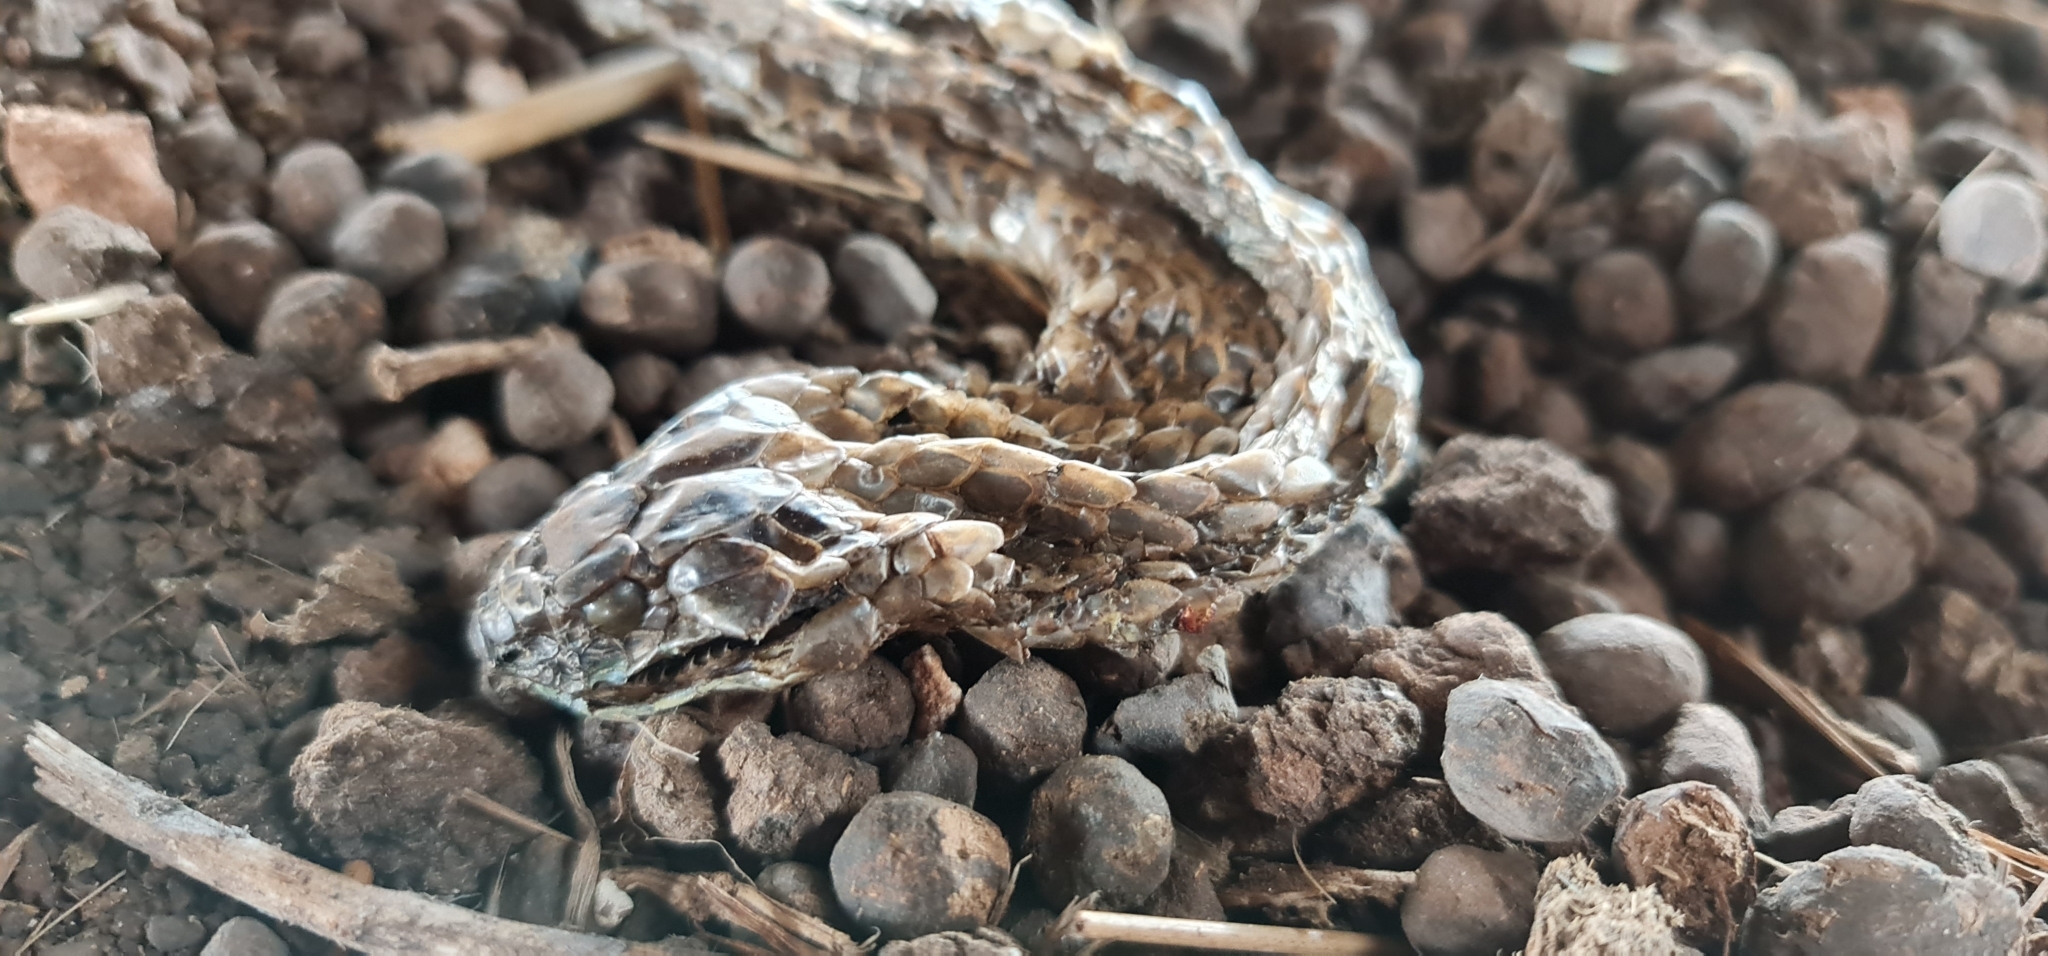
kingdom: Animalia
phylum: Chordata
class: Squamata
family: Elapidae
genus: Notechis
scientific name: Notechis scutatus
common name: Mainland tiger snake
